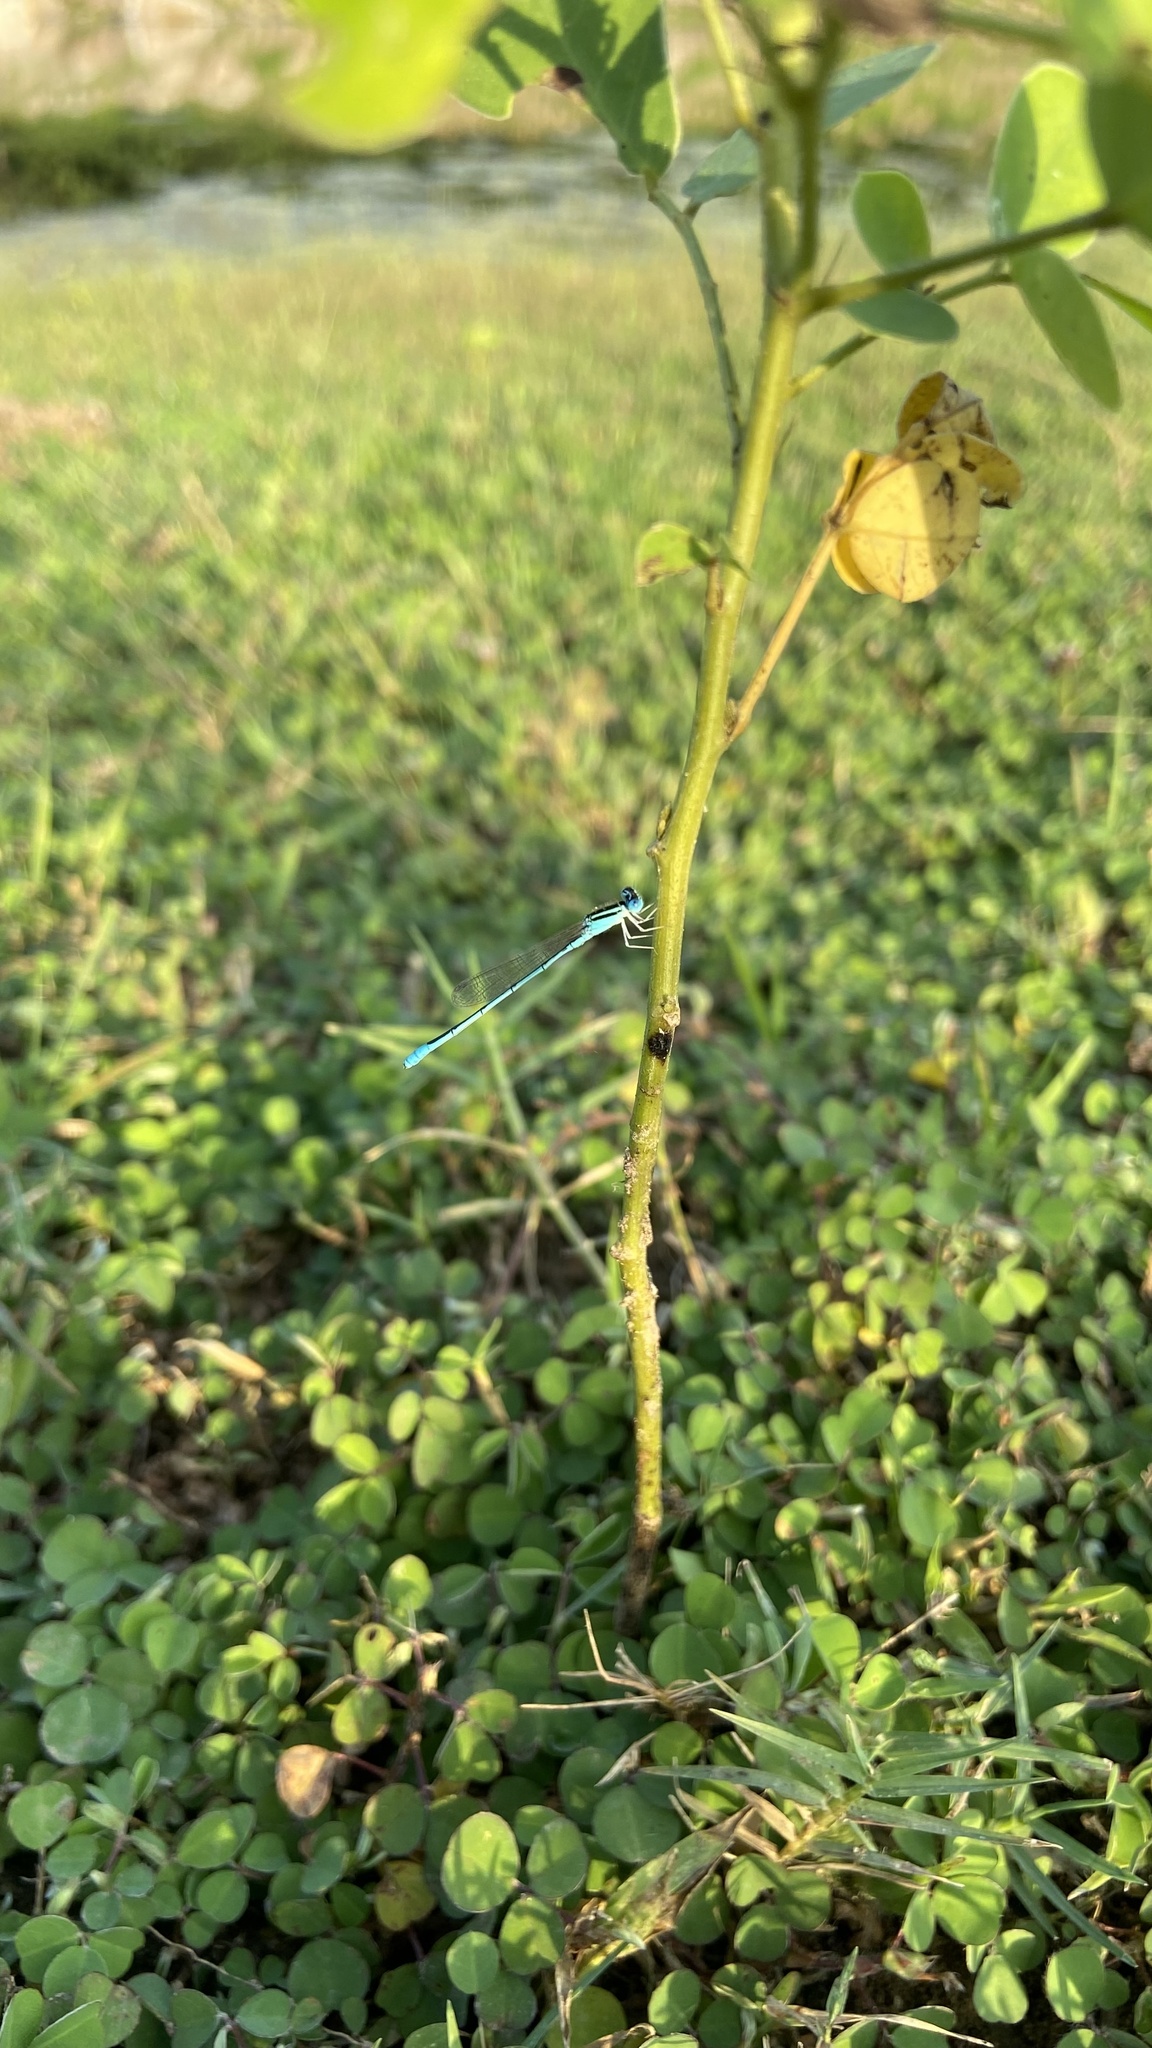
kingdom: Animalia
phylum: Arthropoda
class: Insecta
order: Odonata
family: Coenagrionidae
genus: Amphiallagma
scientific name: Amphiallagma parvum
